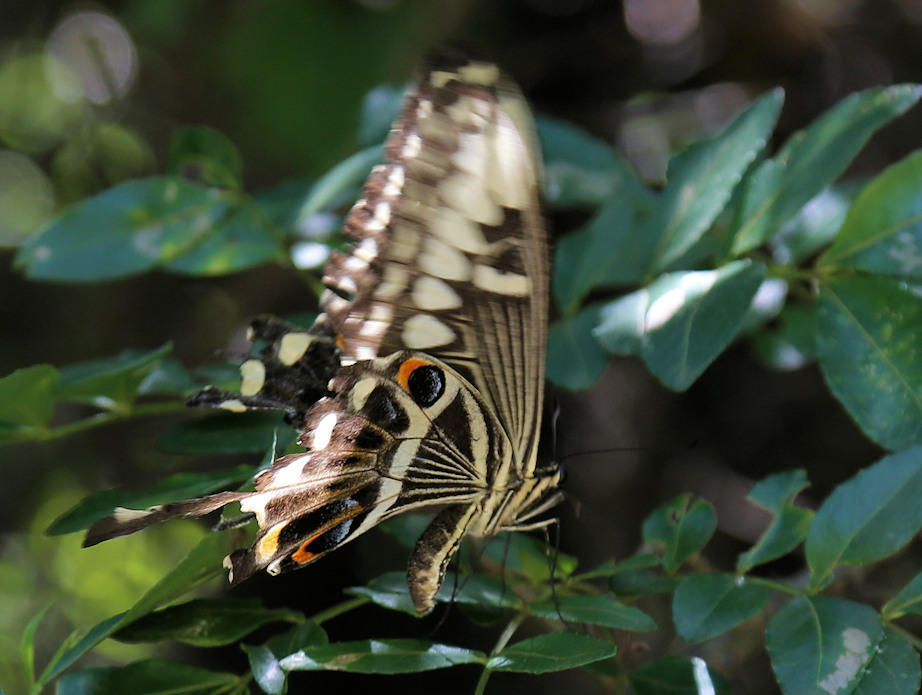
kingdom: Animalia
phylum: Arthropoda
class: Insecta
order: Lepidoptera
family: Papilionidae
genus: Papilio
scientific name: Papilio ophidicephalus
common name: Emperor swallowtail
